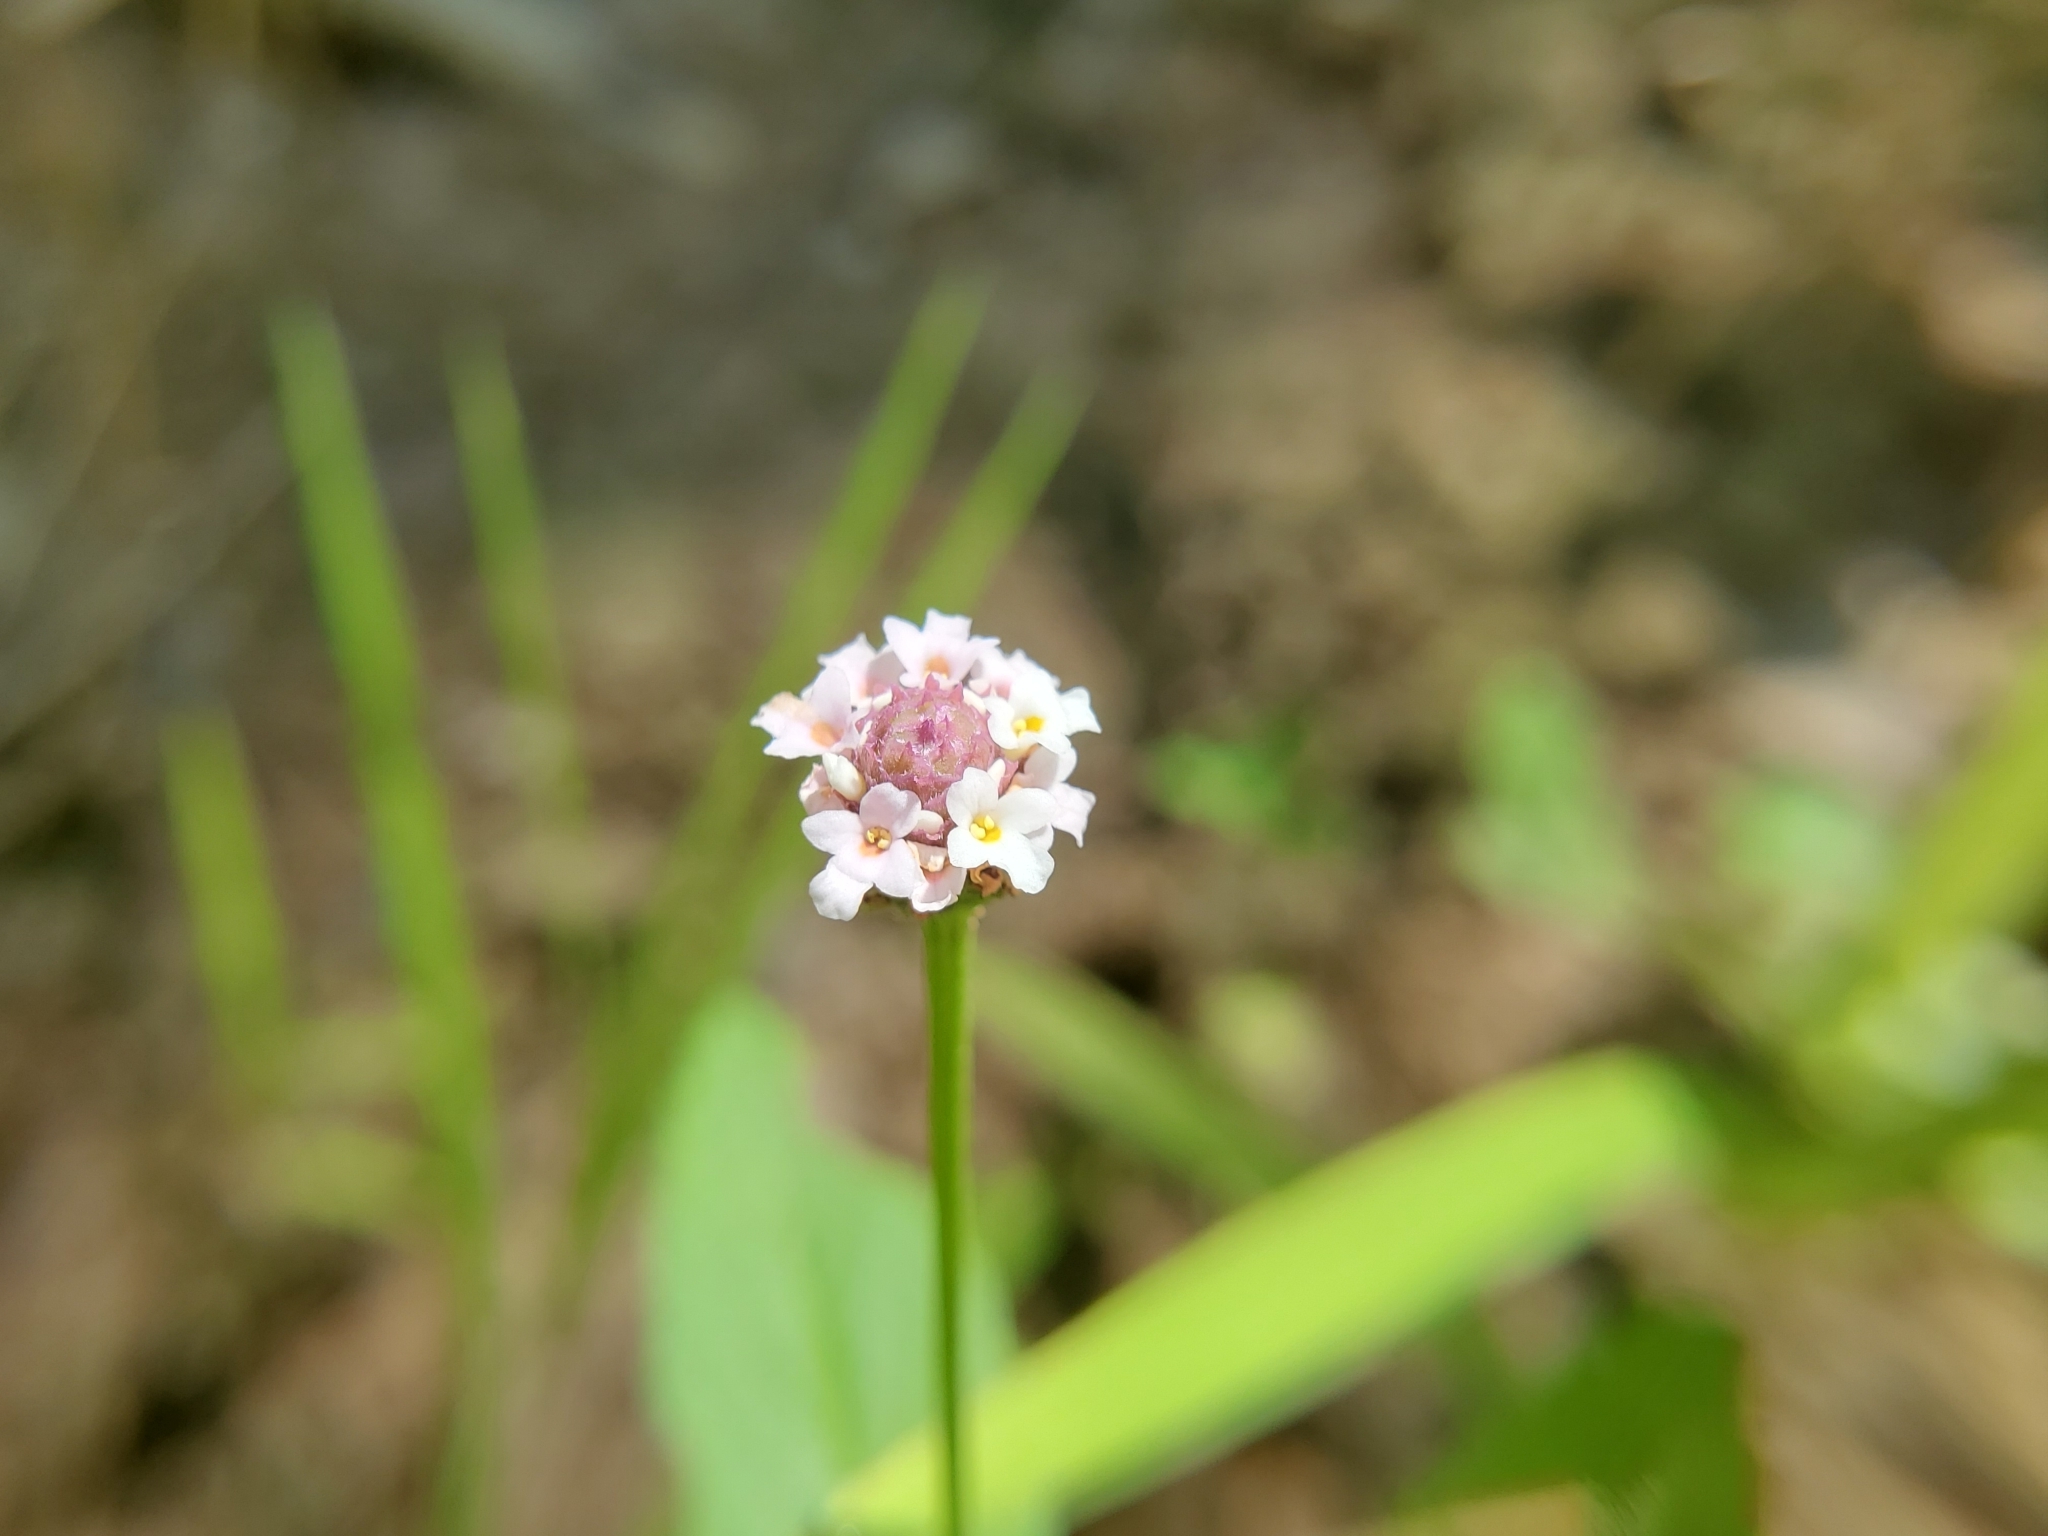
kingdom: Plantae
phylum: Tracheophyta
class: Magnoliopsida
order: Lamiales
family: Verbenaceae
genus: Phyla
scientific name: Phyla lanceolata
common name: Northern fogfruit
